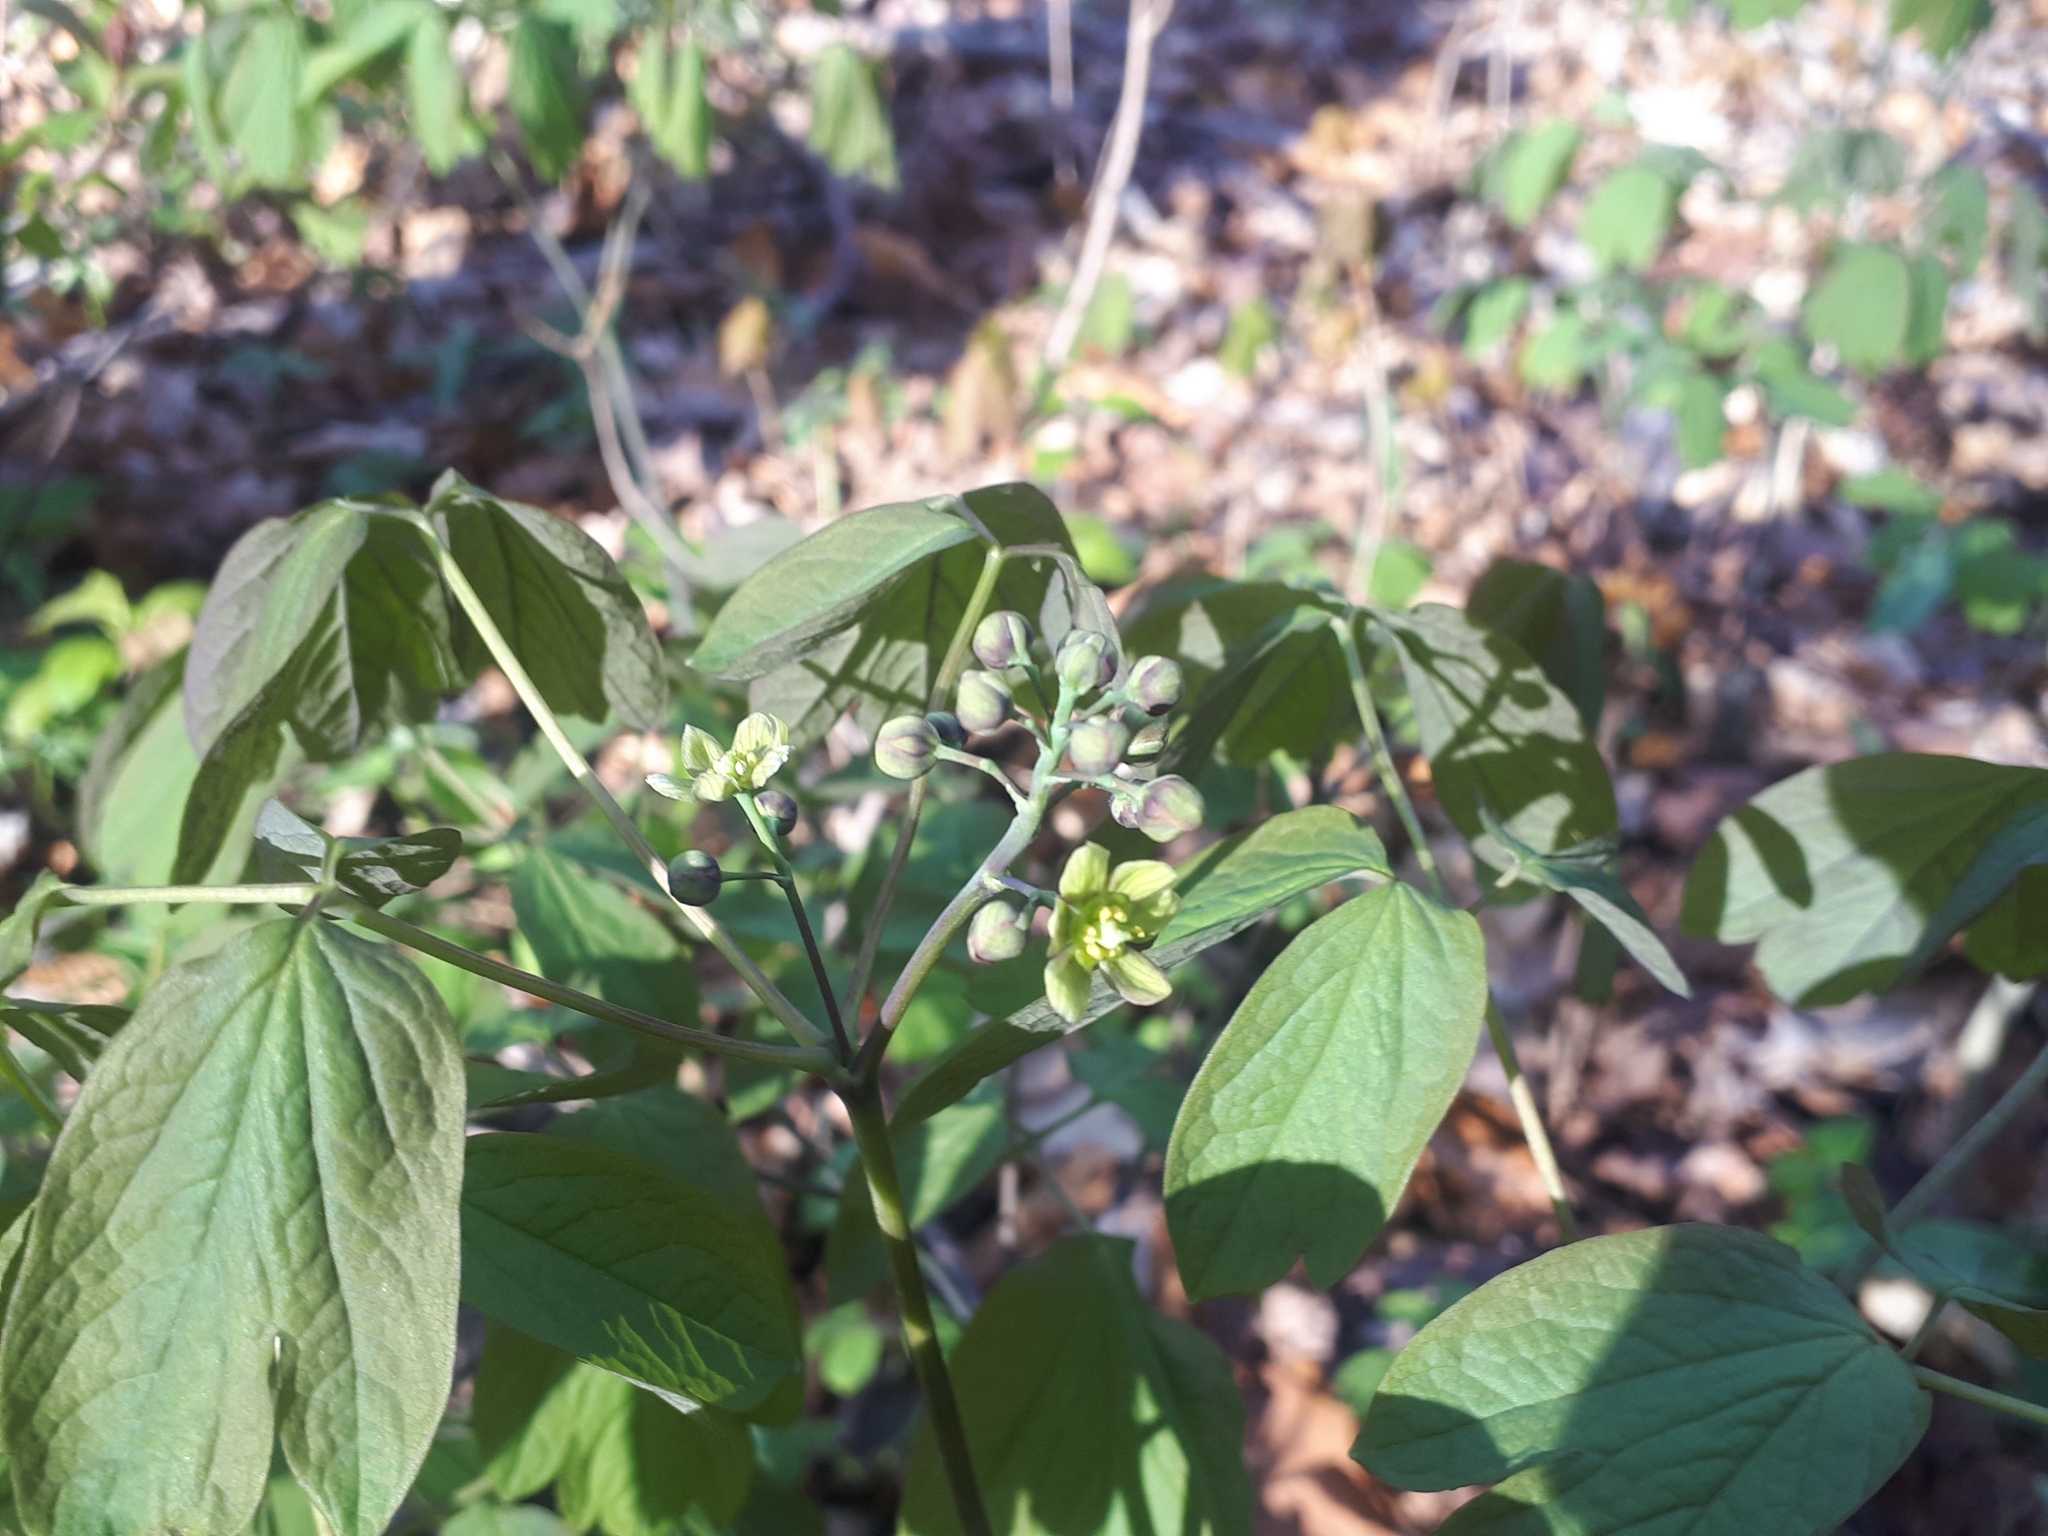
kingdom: Plantae
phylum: Tracheophyta
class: Magnoliopsida
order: Ranunculales
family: Berberidaceae
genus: Caulophyllum
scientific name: Caulophyllum thalictroides
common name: Blue cohosh
